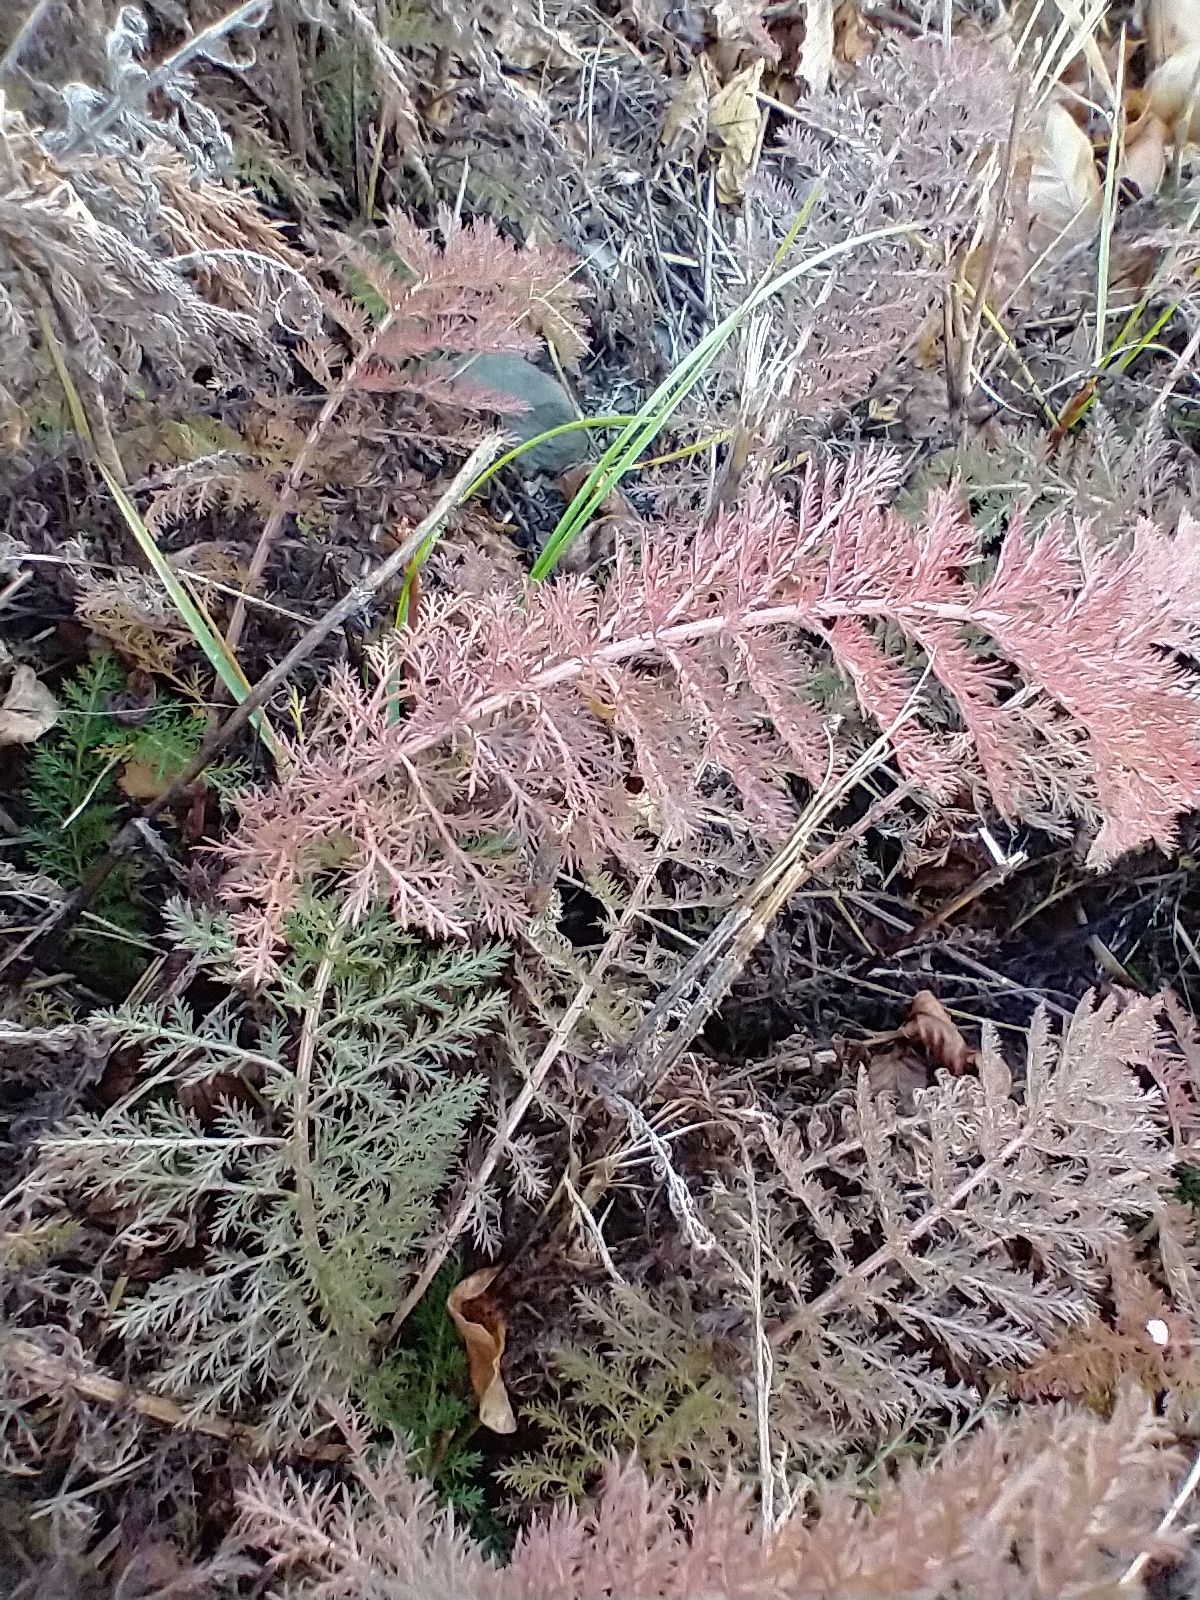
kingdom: Plantae
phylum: Tracheophyta
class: Magnoliopsida
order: Asterales
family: Asteraceae
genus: Achillea
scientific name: Achillea millefolium
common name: Yarrow
